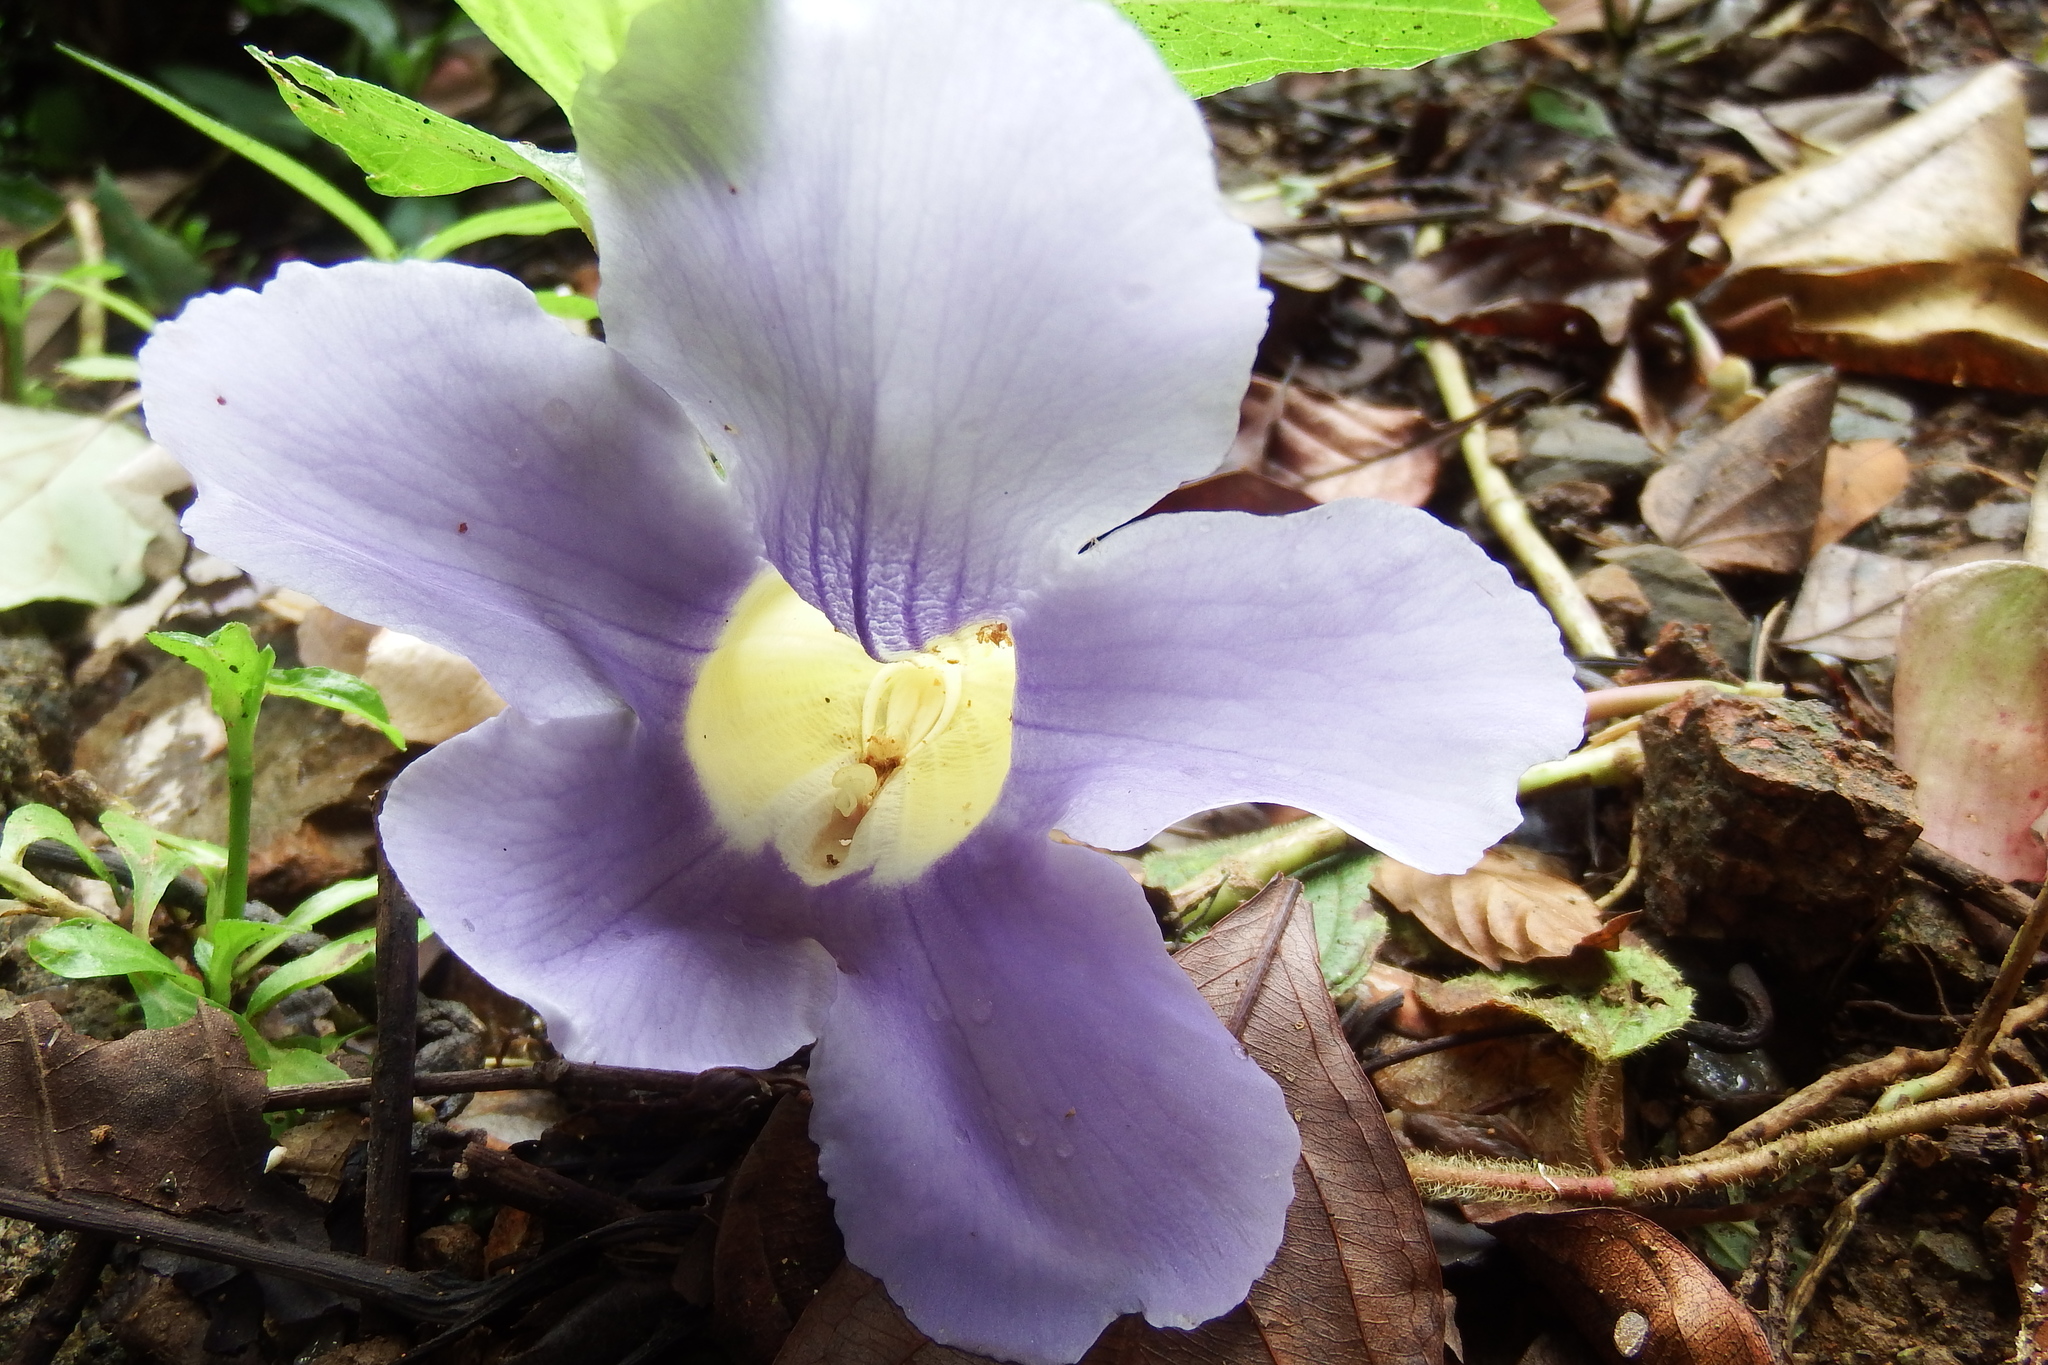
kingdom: Plantae
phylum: Tracheophyta
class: Magnoliopsida
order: Lamiales
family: Acanthaceae
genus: Thunbergia
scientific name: Thunbergia grandiflora
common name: Bengal trumpet
